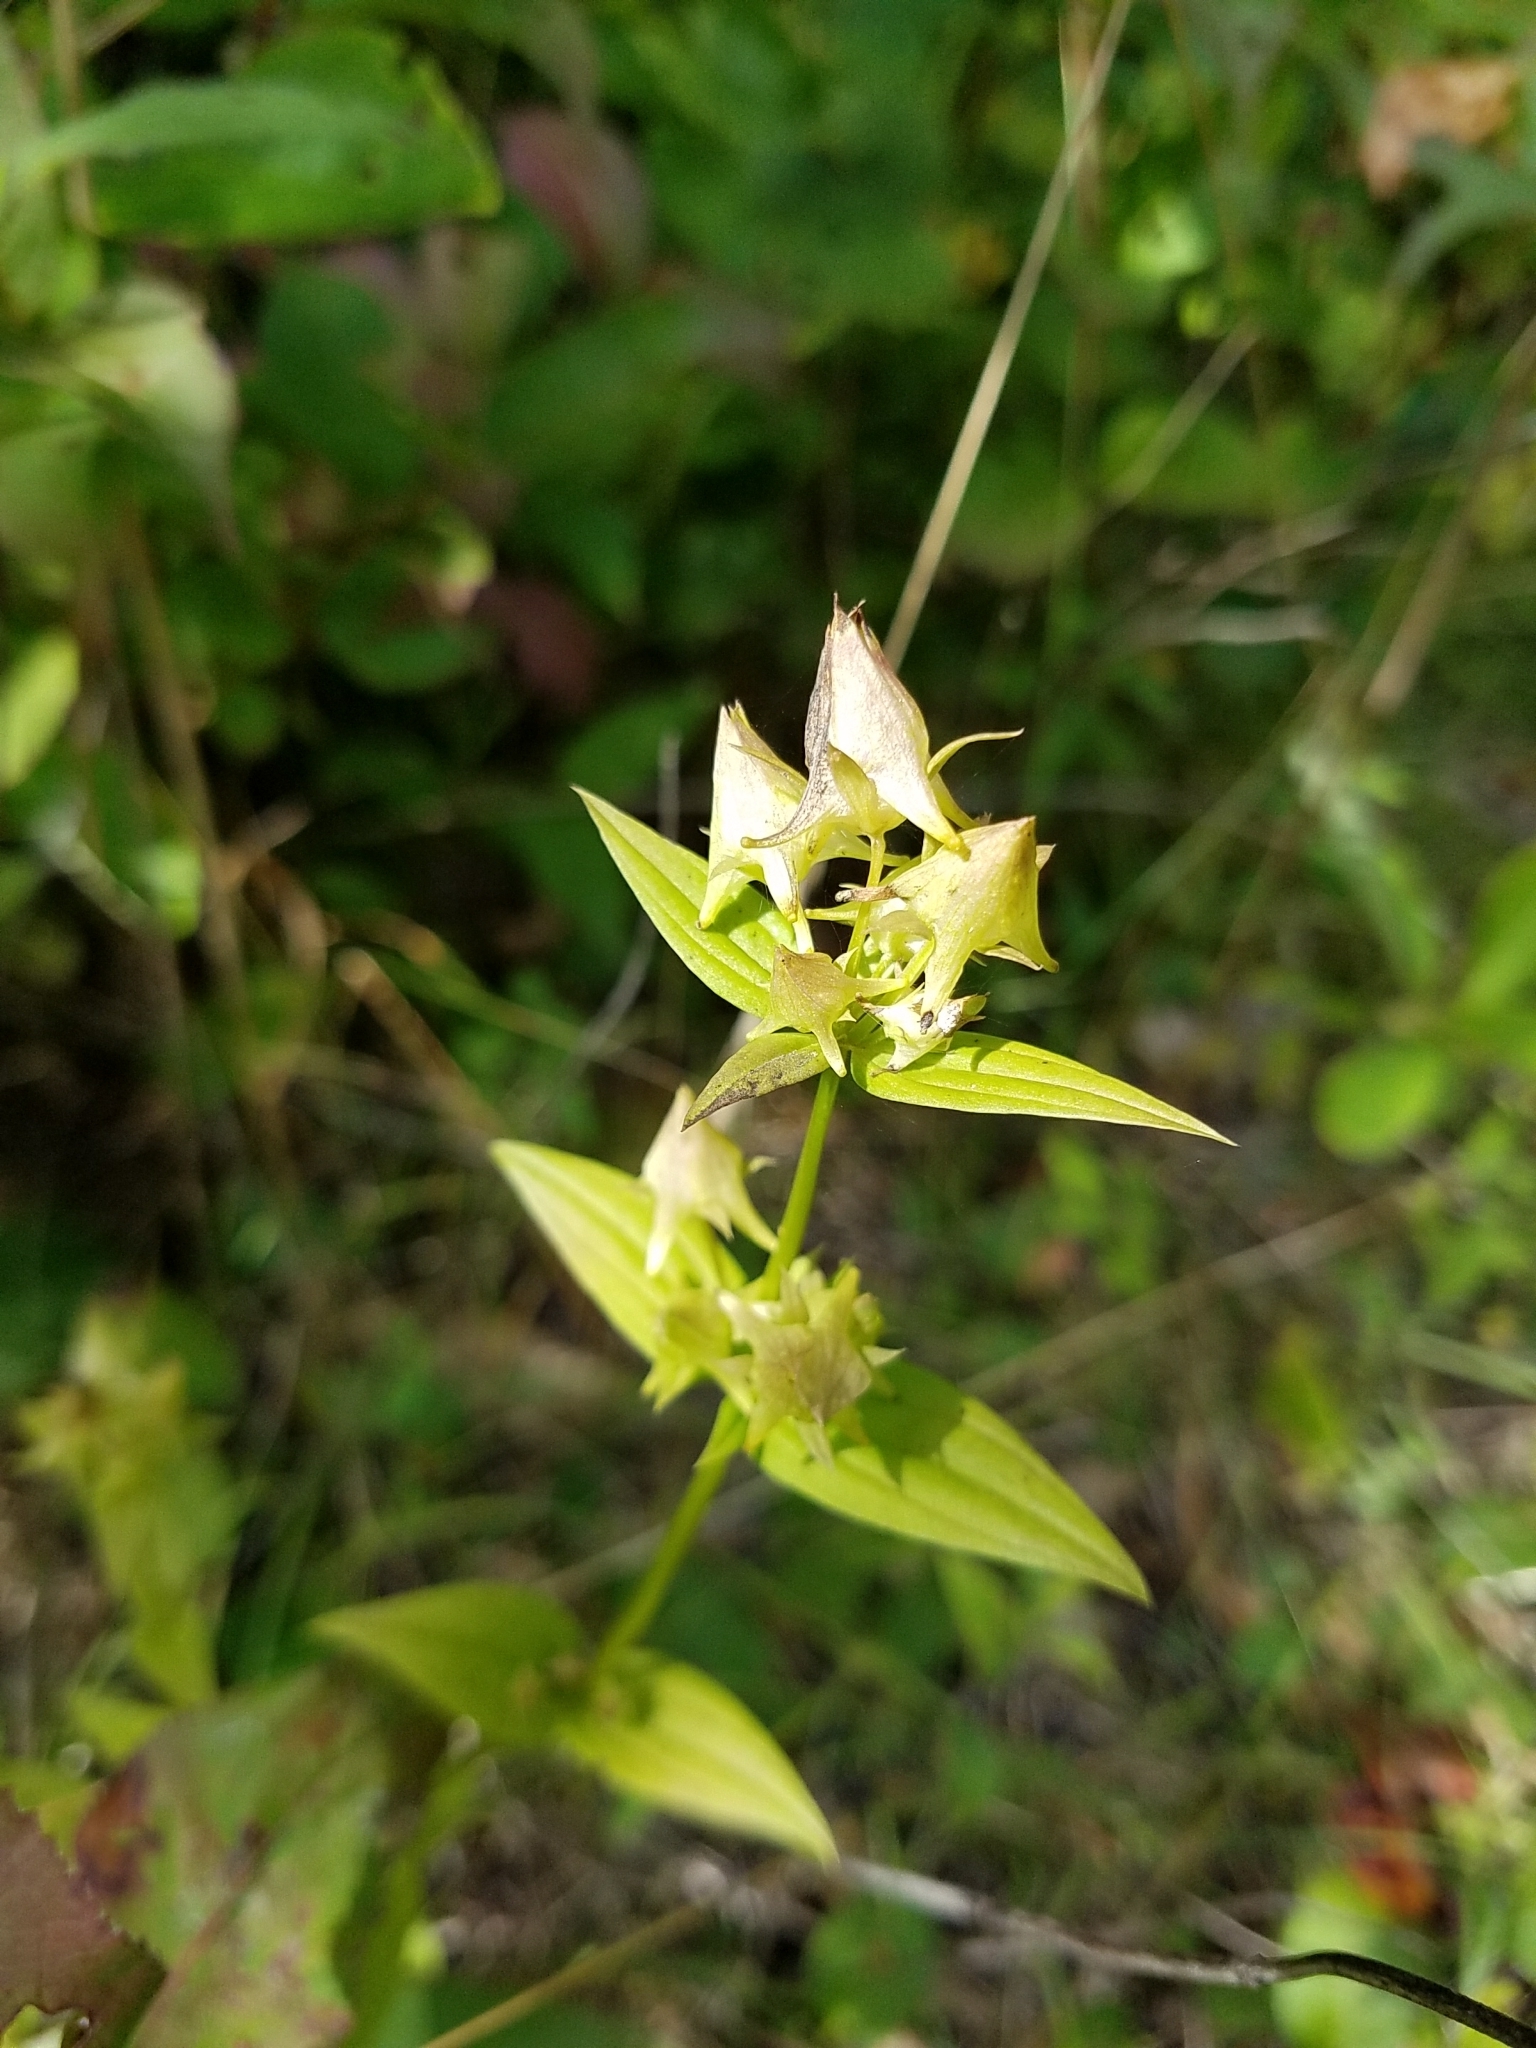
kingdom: Plantae
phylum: Tracheophyta
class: Magnoliopsida
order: Gentianales
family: Gentianaceae
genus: Halenia
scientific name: Halenia deflexa
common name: American spurred gentian
